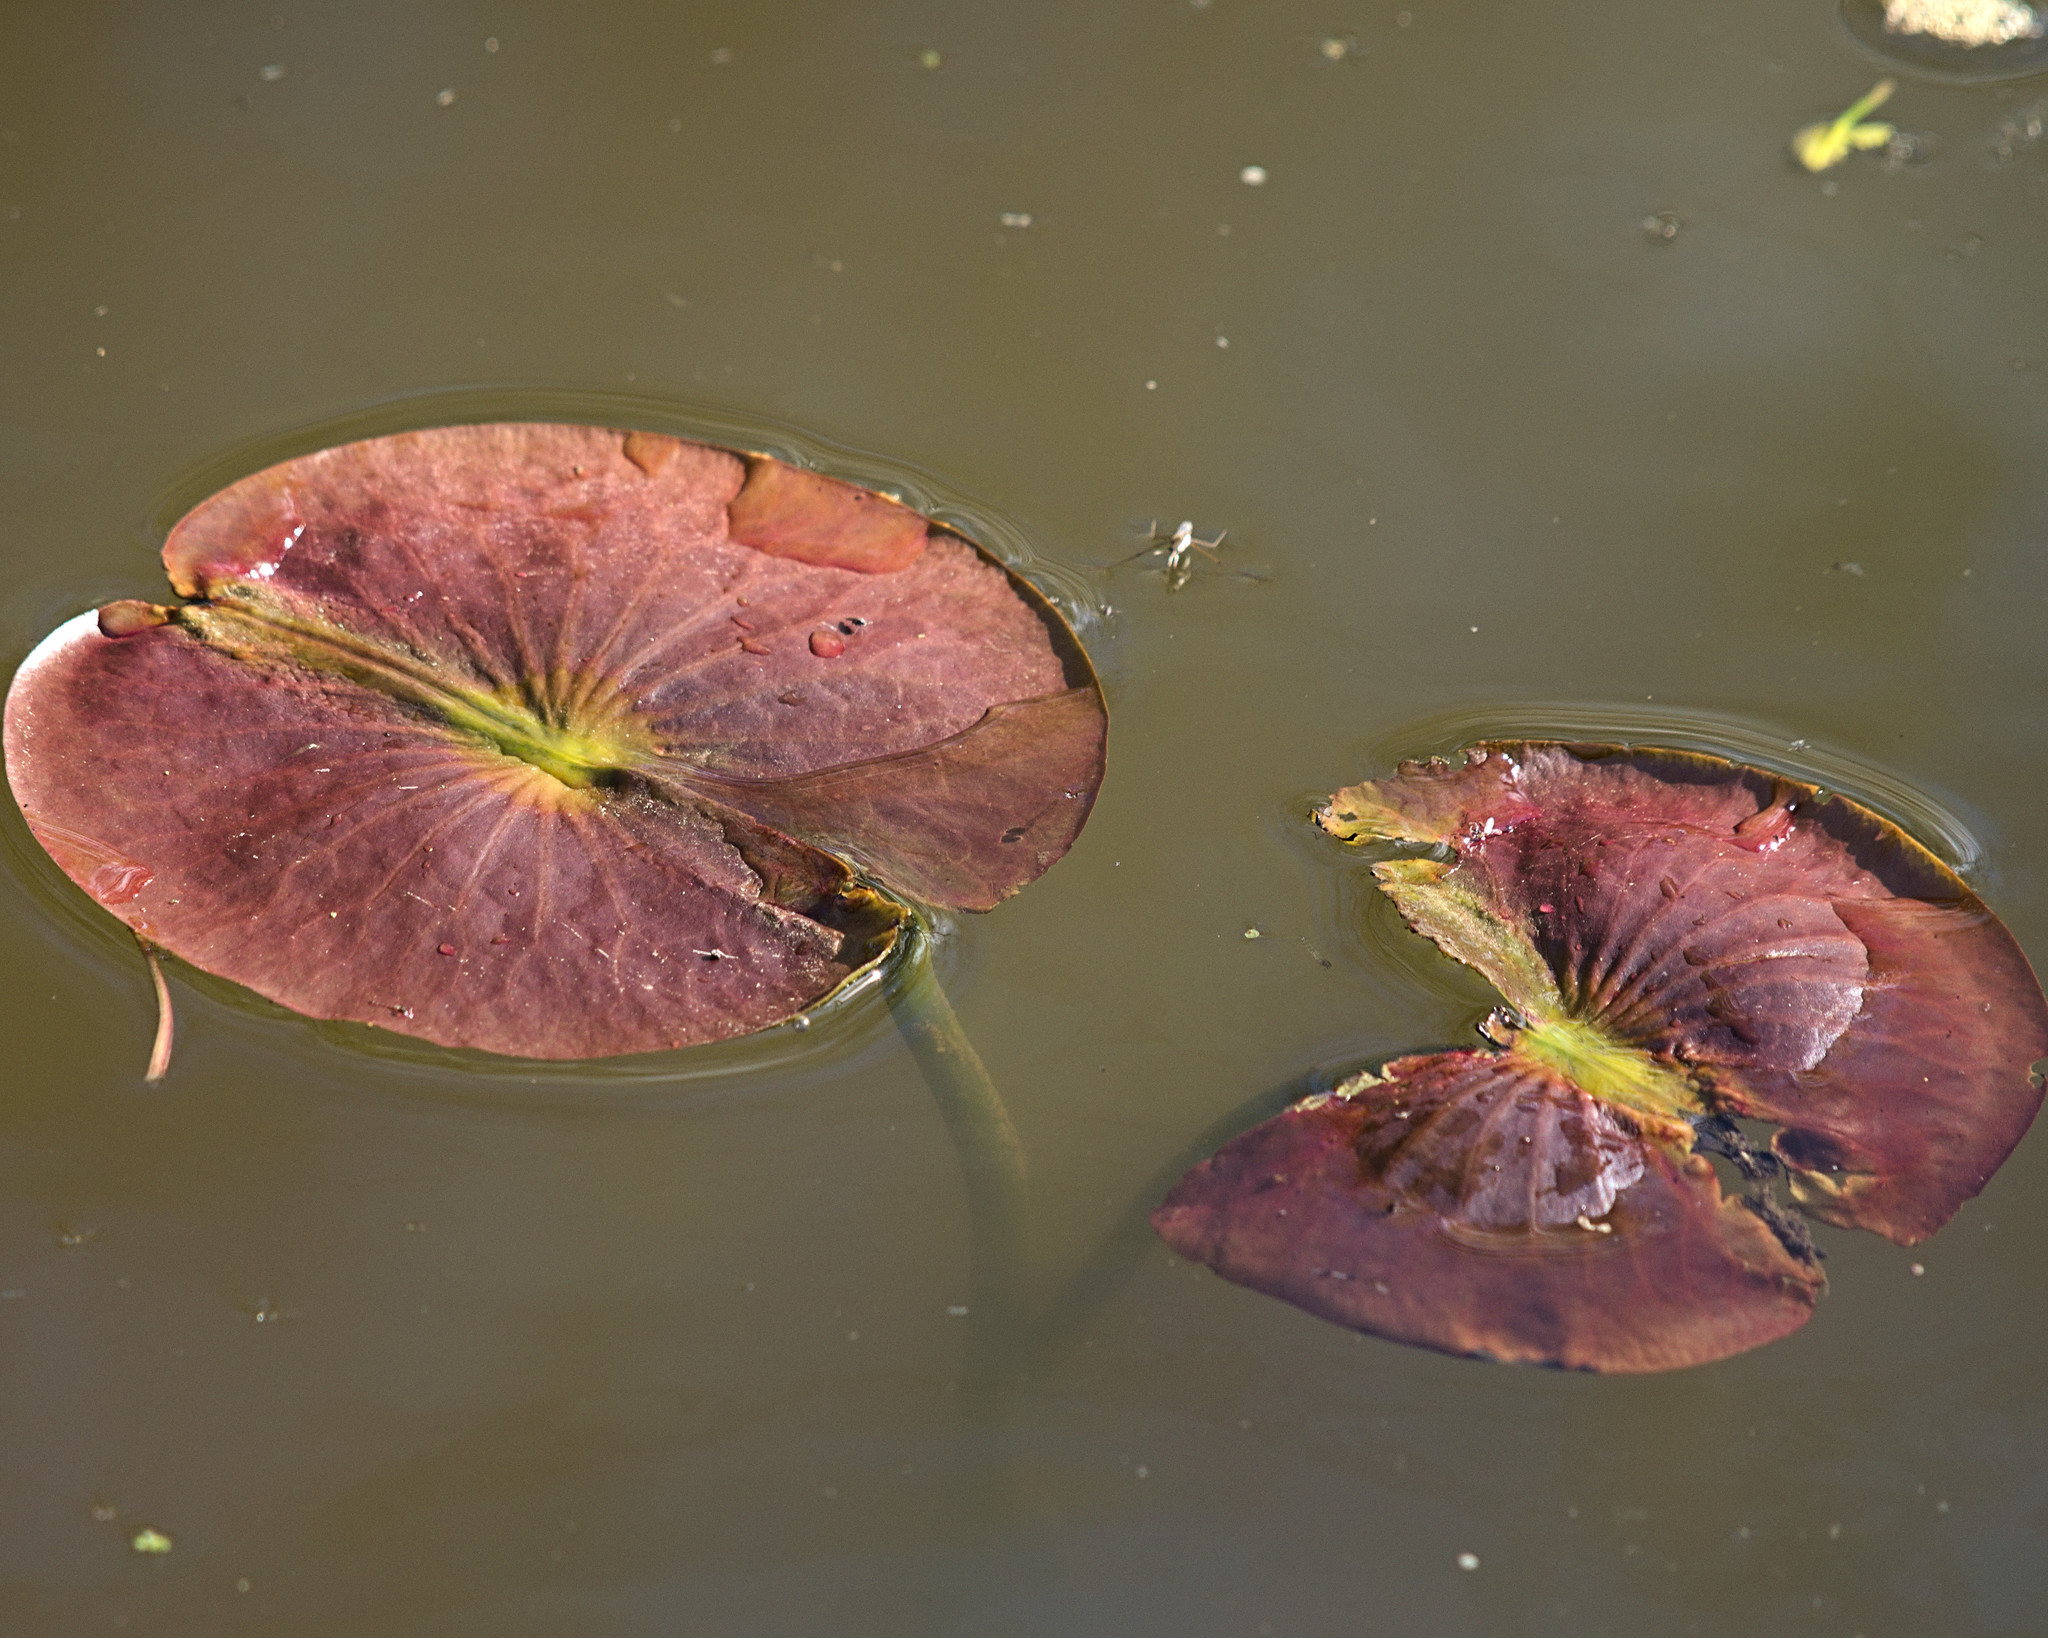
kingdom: Plantae
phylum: Tracheophyta
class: Magnoliopsida
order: Nymphaeales
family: Nymphaeaceae
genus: Nymphaea
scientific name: Nymphaea odorata
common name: Fragrant water-lily
